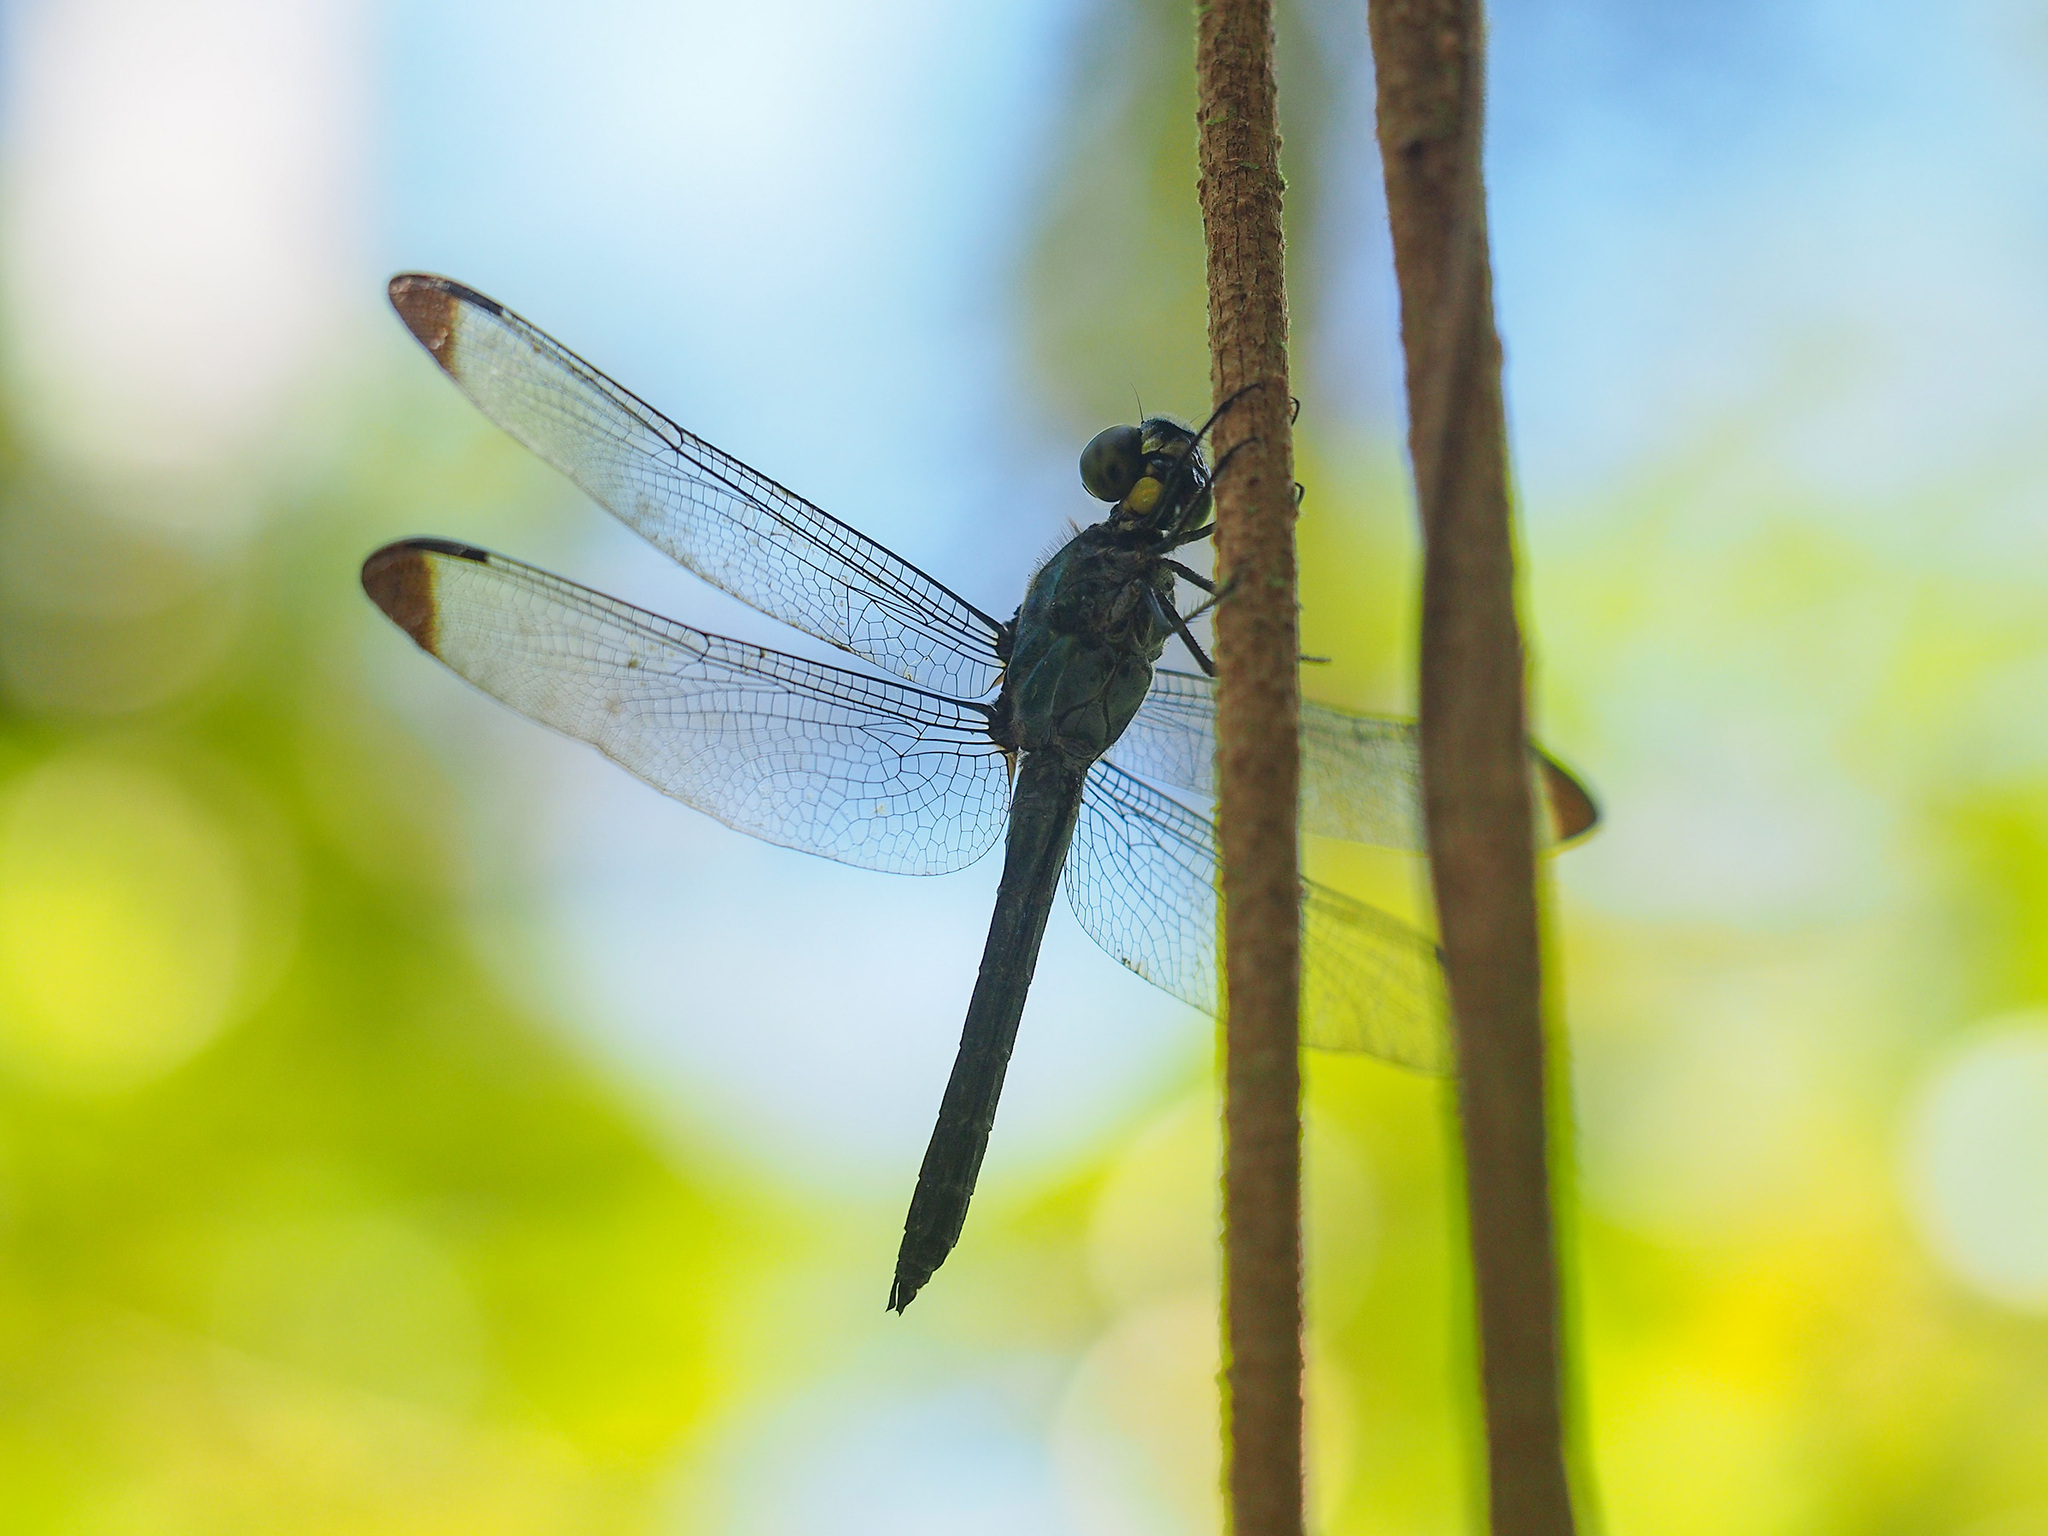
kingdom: Animalia
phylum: Arthropoda
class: Insecta
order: Odonata
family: Libellulidae
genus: Cratilla
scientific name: Cratilla metallica
